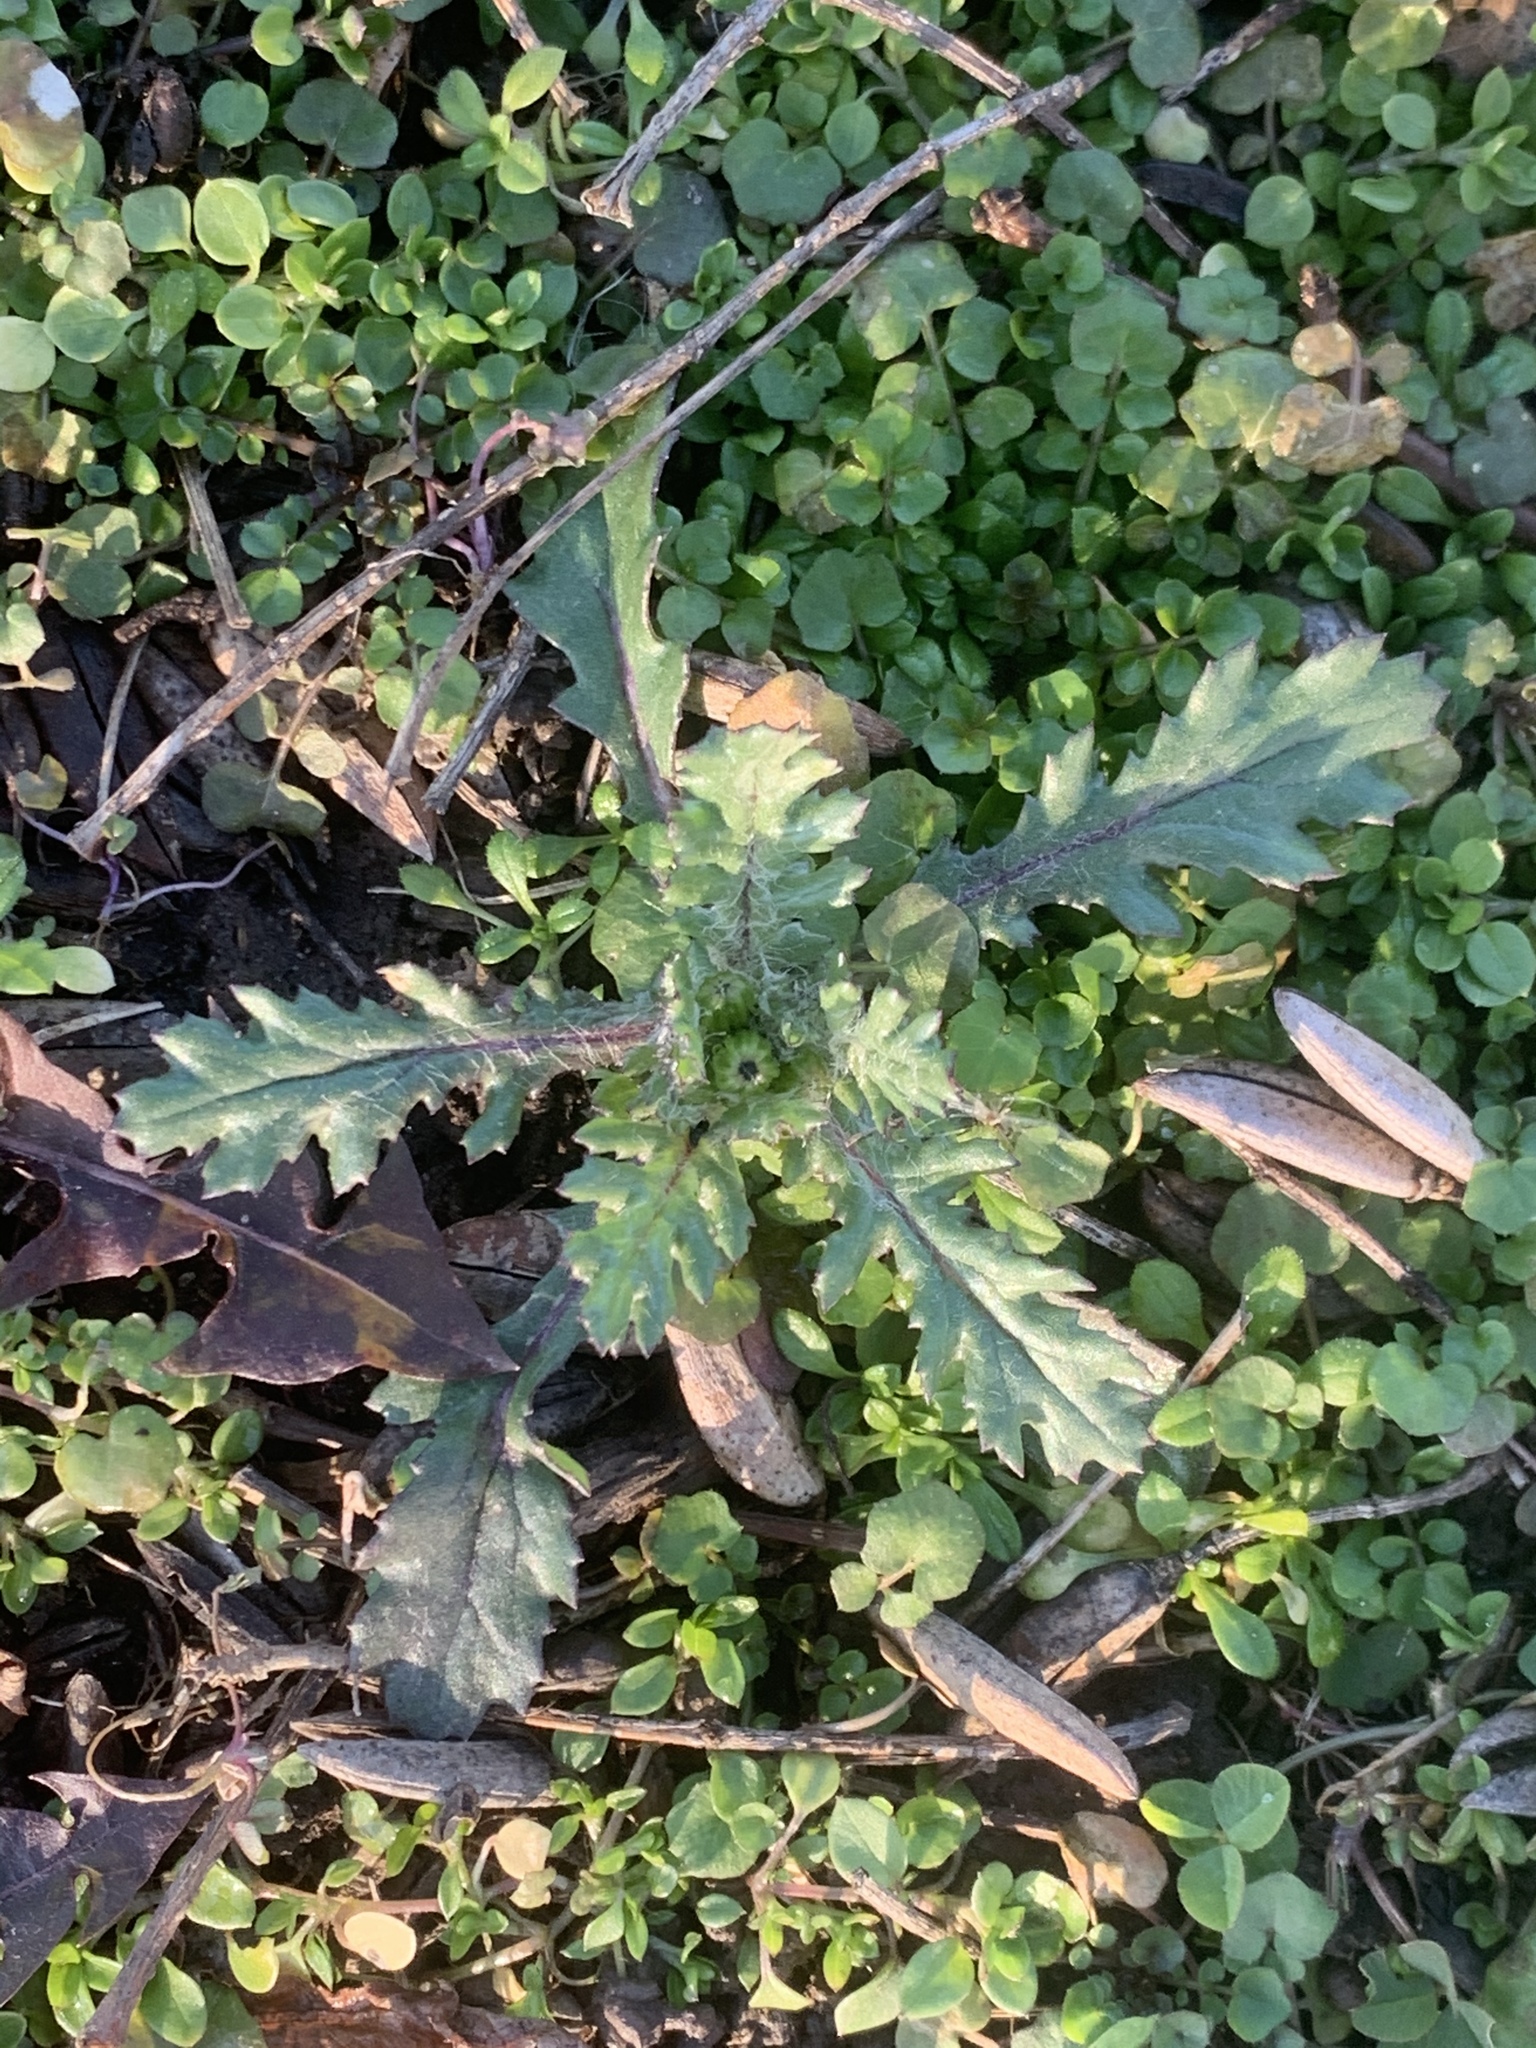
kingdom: Plantae
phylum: Tracheophyta
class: Magnoliopsida
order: Asterales
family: Asteraceae
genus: Senecio
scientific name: Senecio vulgaris
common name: Old-man-in-the-spring
